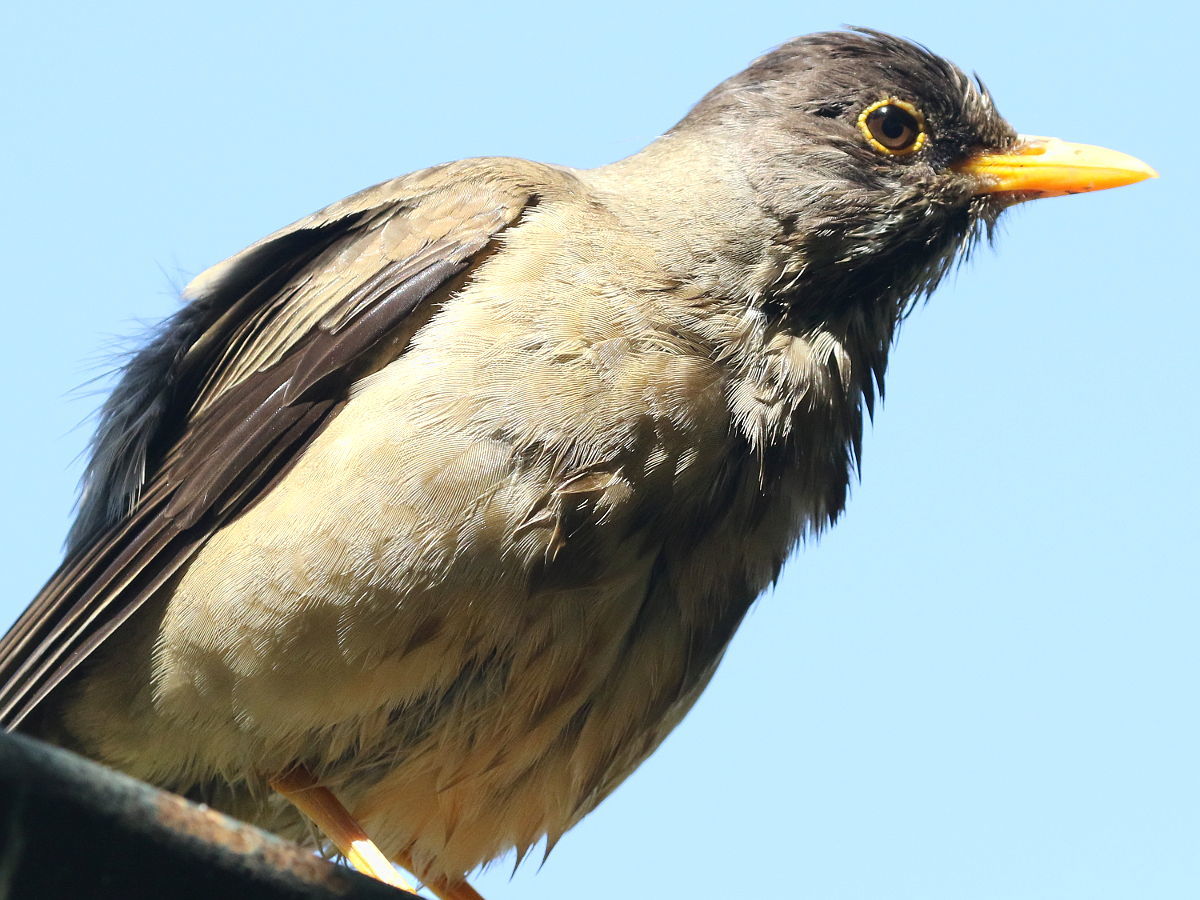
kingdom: Animalia
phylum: Chordata
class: Aves
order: Passeriformes
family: Turdidae
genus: Turdus
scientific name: Turdus falcklandii
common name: Austral thrush
